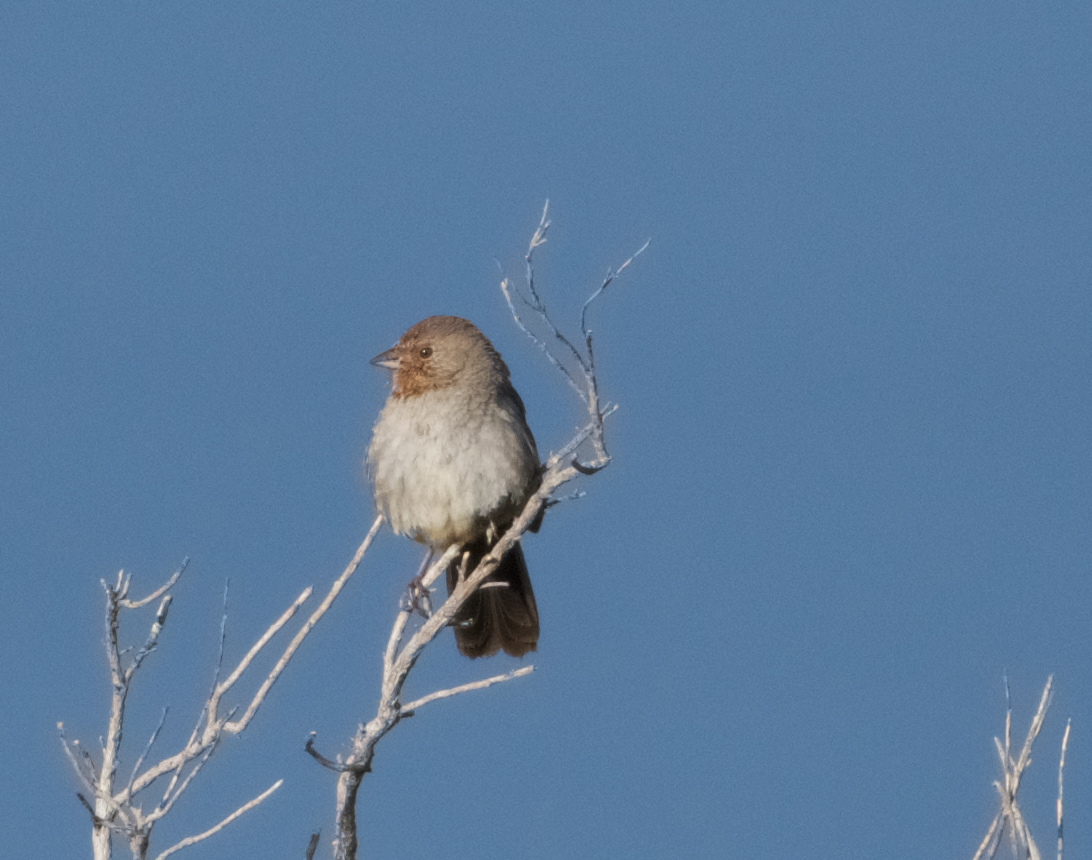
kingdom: Animalia
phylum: Chordata
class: Aves
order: Passeriformes
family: Passerellidae
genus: Melozone
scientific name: Melozone crissalis
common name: California towhee
